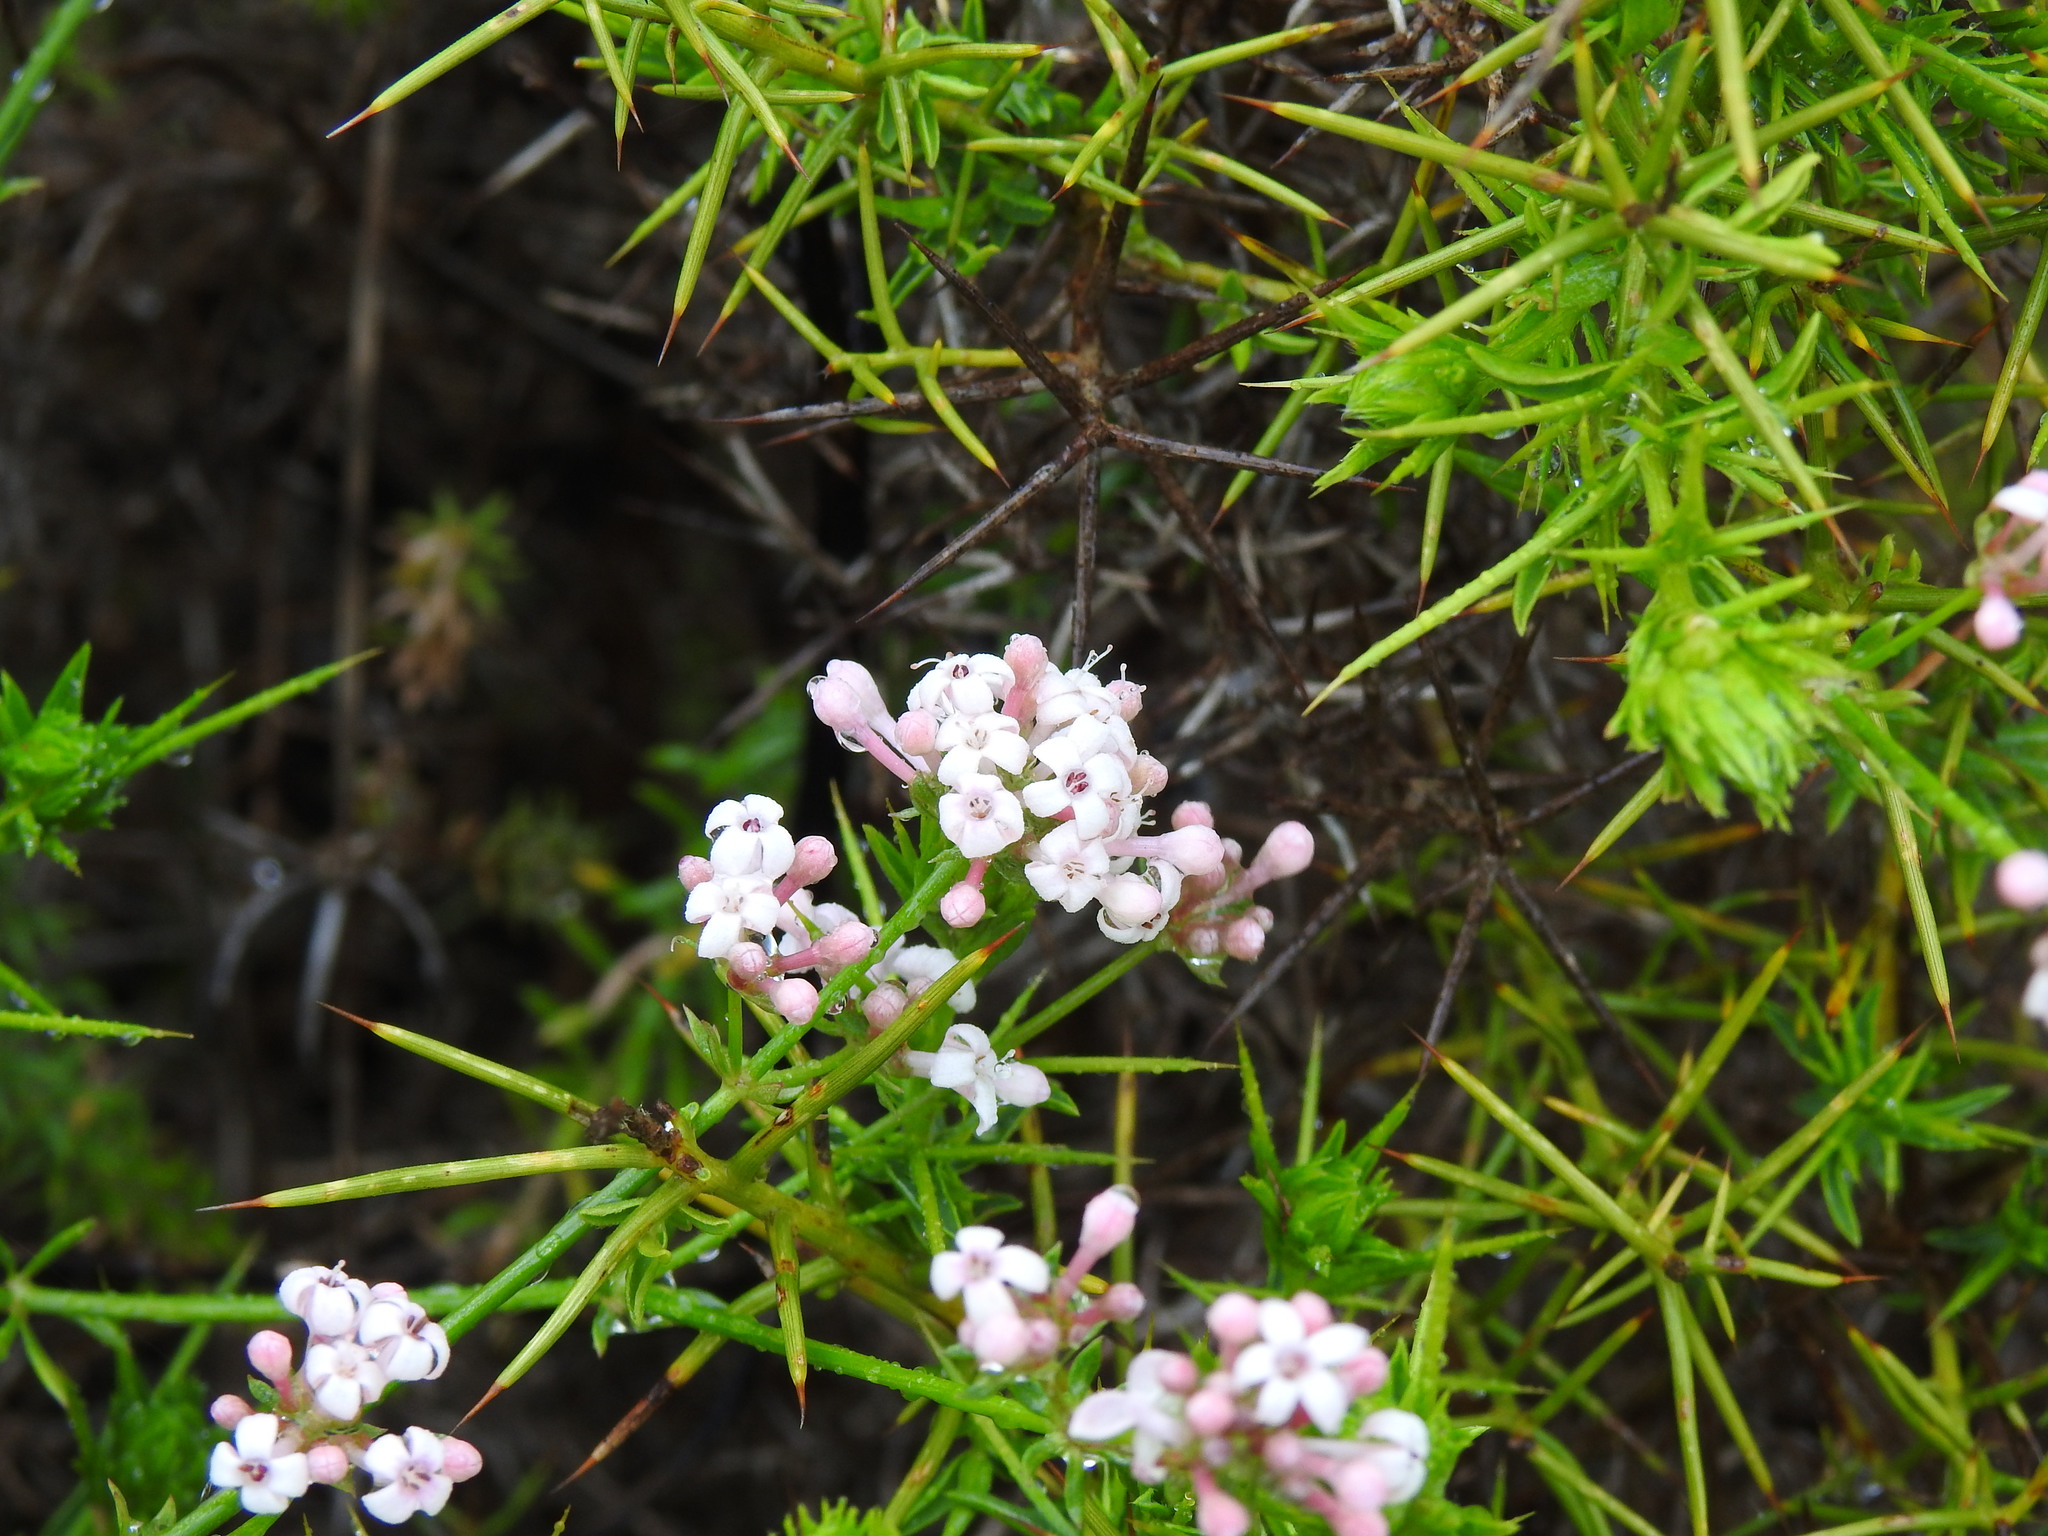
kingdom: Plantae
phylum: Tracheophyta
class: Magnoliopsida
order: Gentianales
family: Rubiaceae
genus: Hexaphylla
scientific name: Hexaphylla hirsuta
